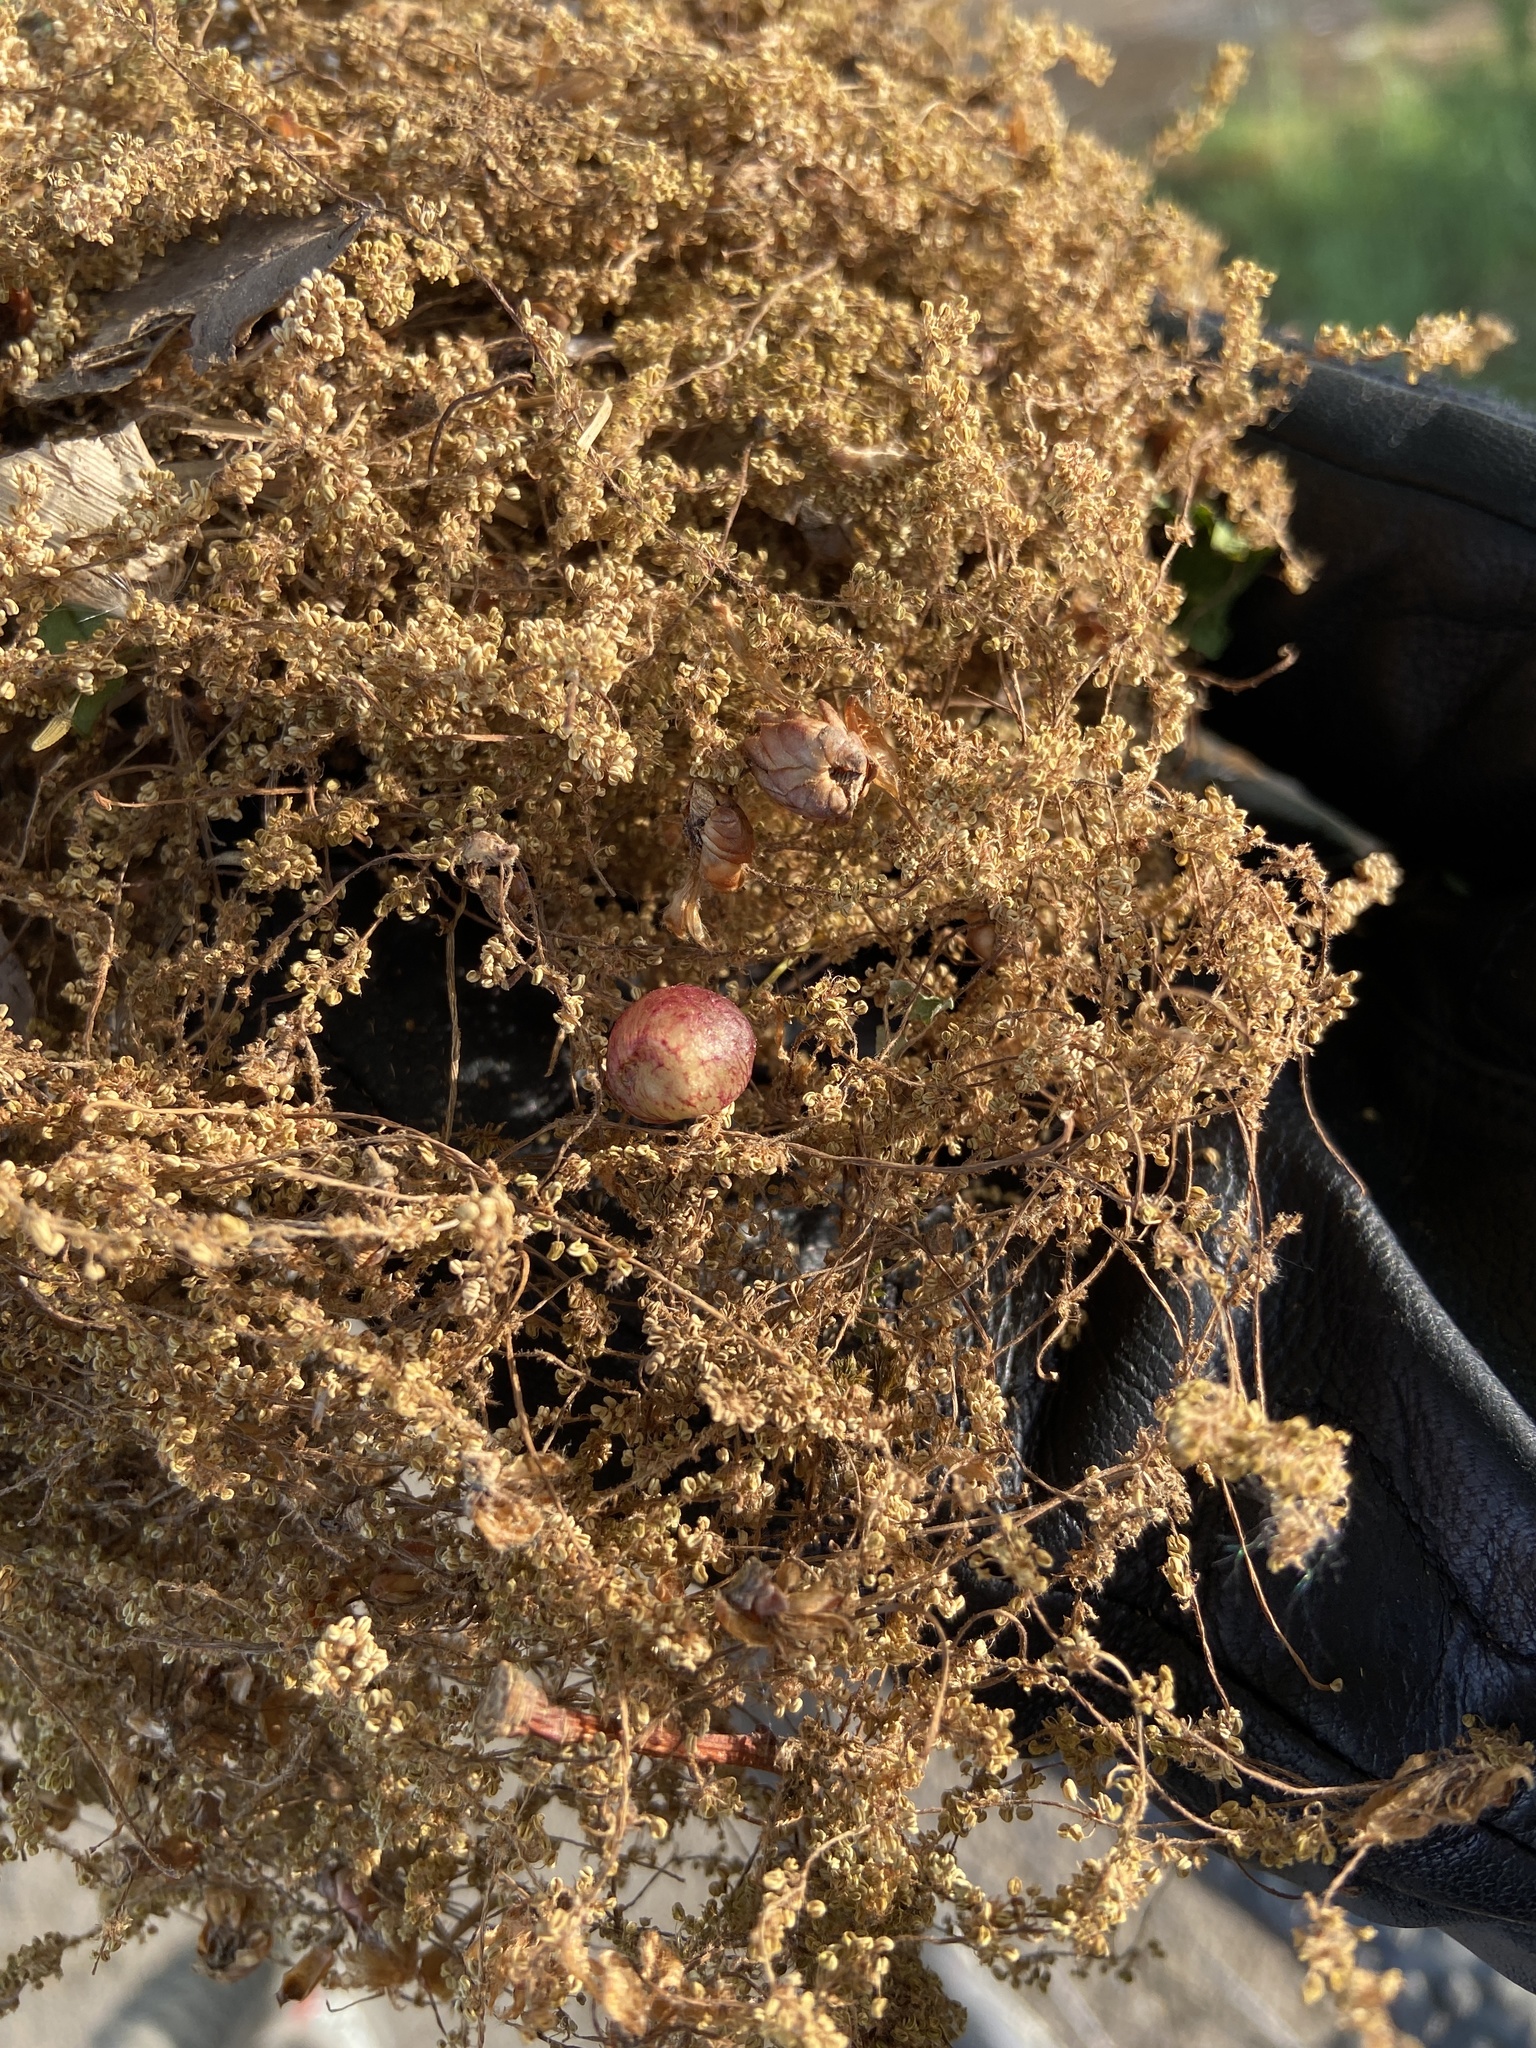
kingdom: Animalia
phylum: Arthropoda
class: Insecta
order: Hymenoptera
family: Cynipidae
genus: Neuroterus
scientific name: Neuroterus quercusbaccarum
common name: Common spangle gall
